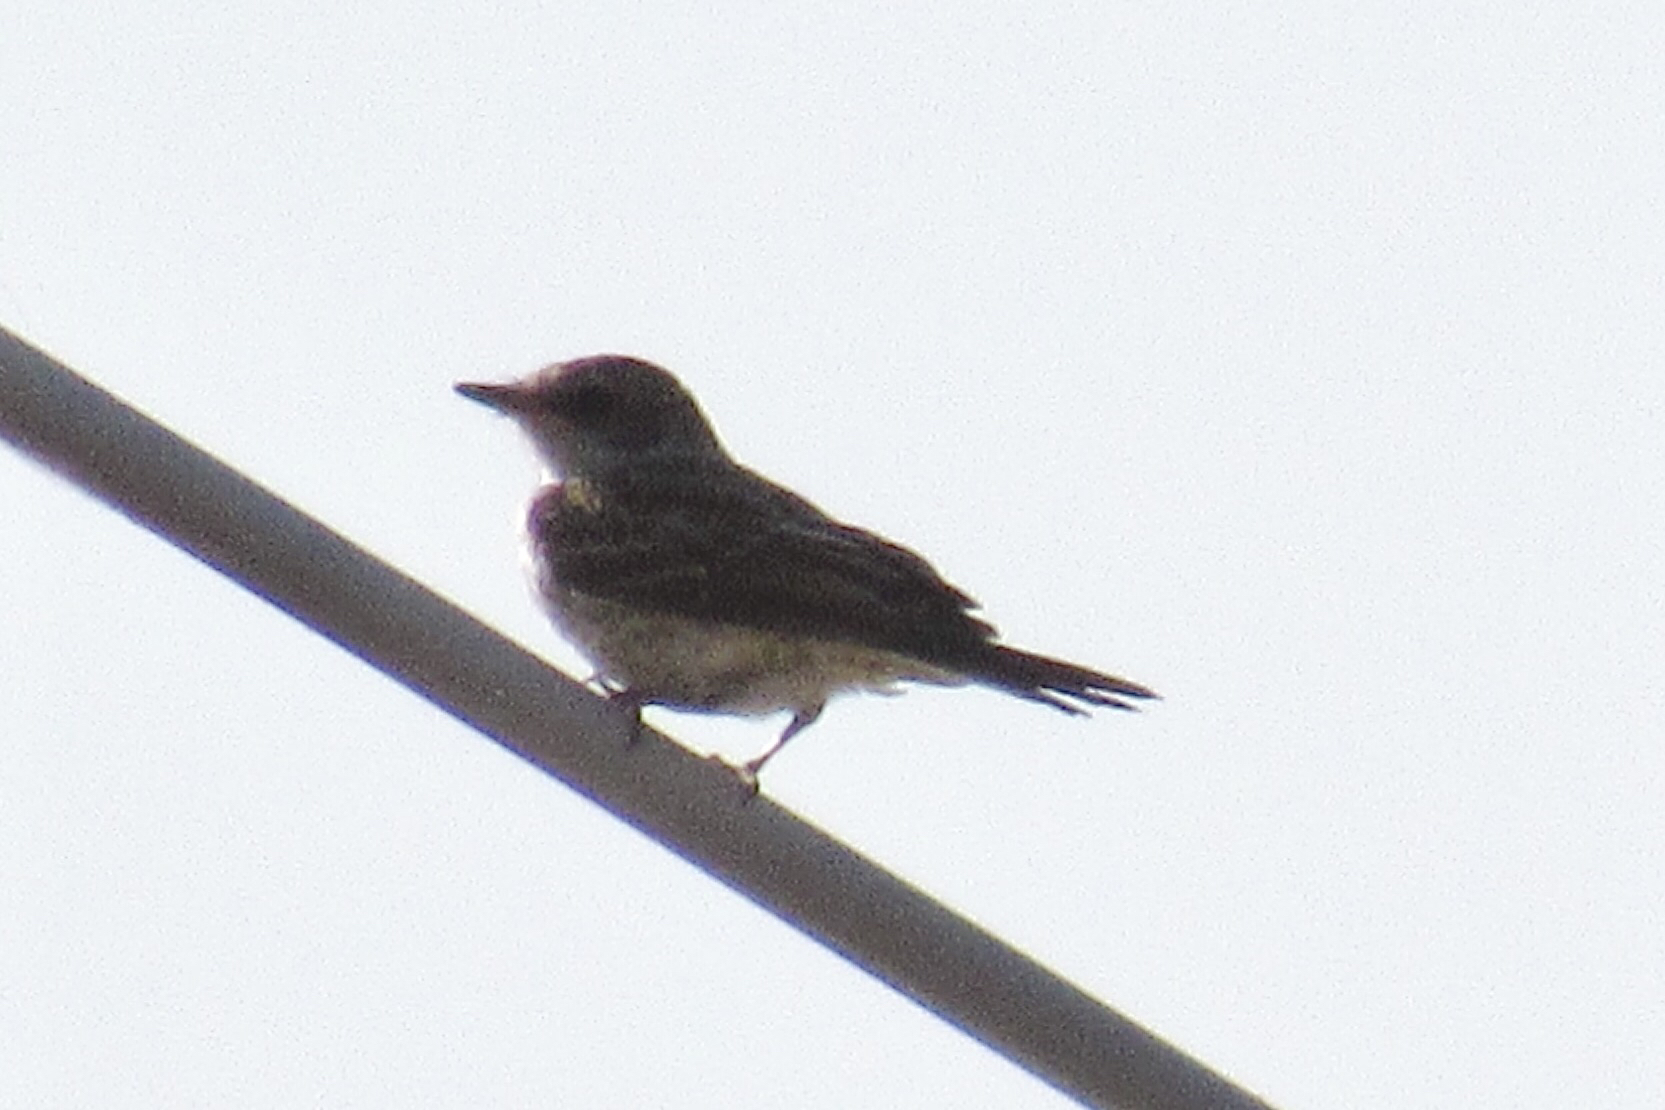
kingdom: Animalia
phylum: Chordata
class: Aves
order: Passeriformes
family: Tyrannidae
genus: Pyrocephalus
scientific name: Pyrocephalus rubinus
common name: Vermilion flycatcher
